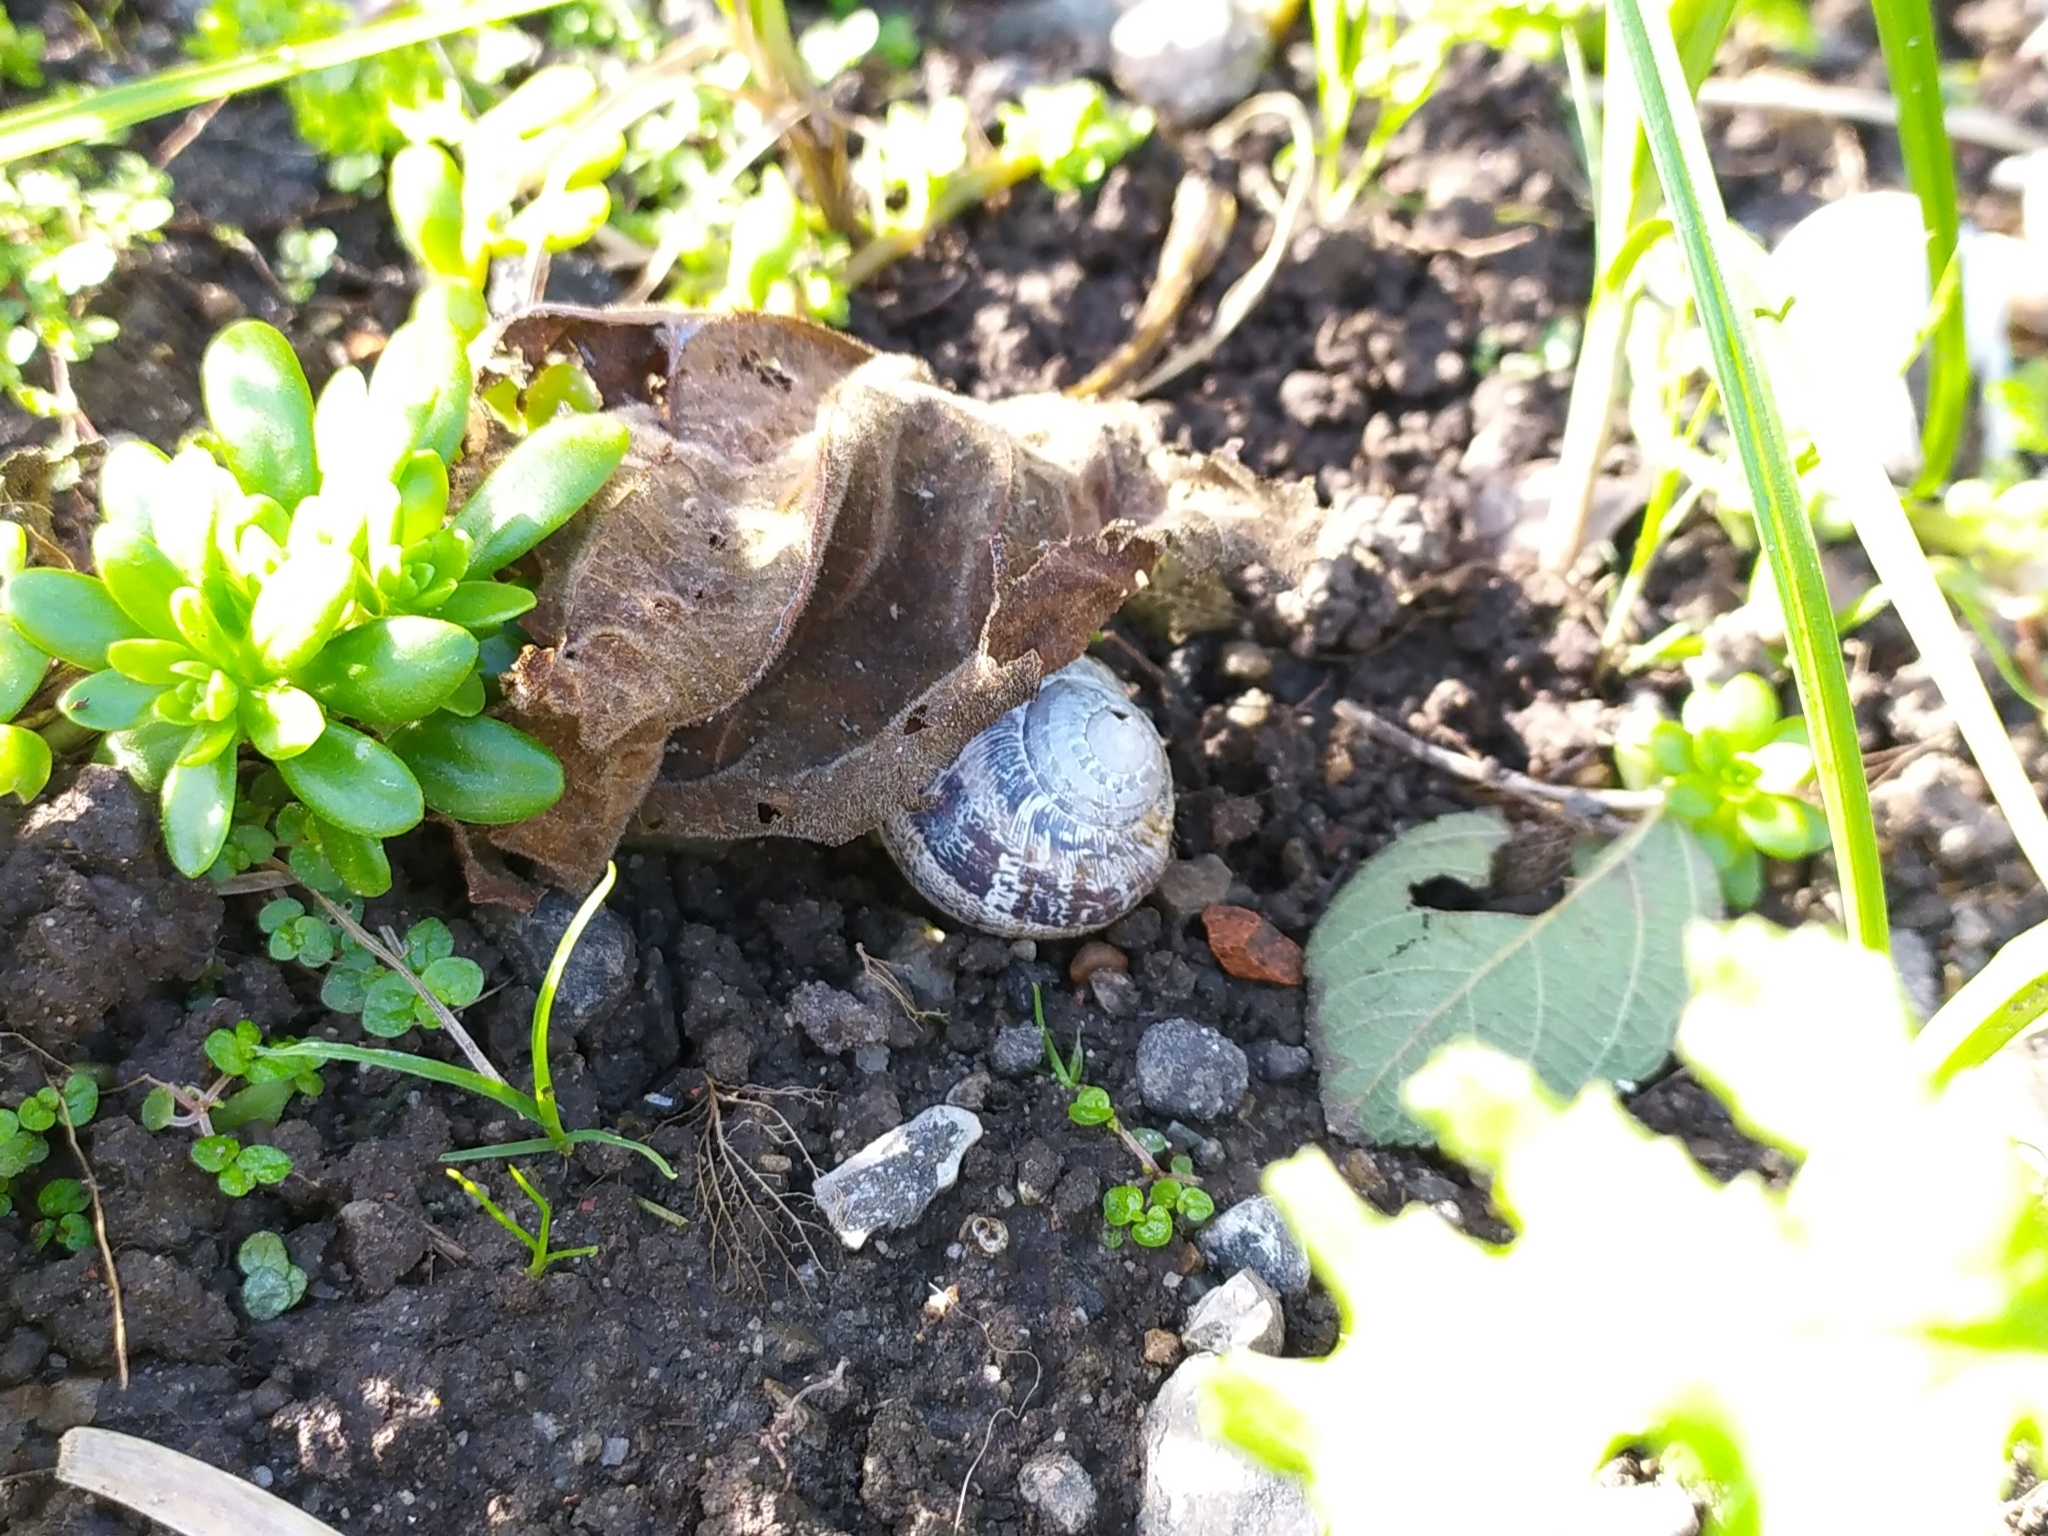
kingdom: Animalia
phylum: Mollusca
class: Gastropoda
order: Stylommatophora
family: Helicidae
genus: Cornu
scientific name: Cornu aspersum
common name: Brown garden snail
